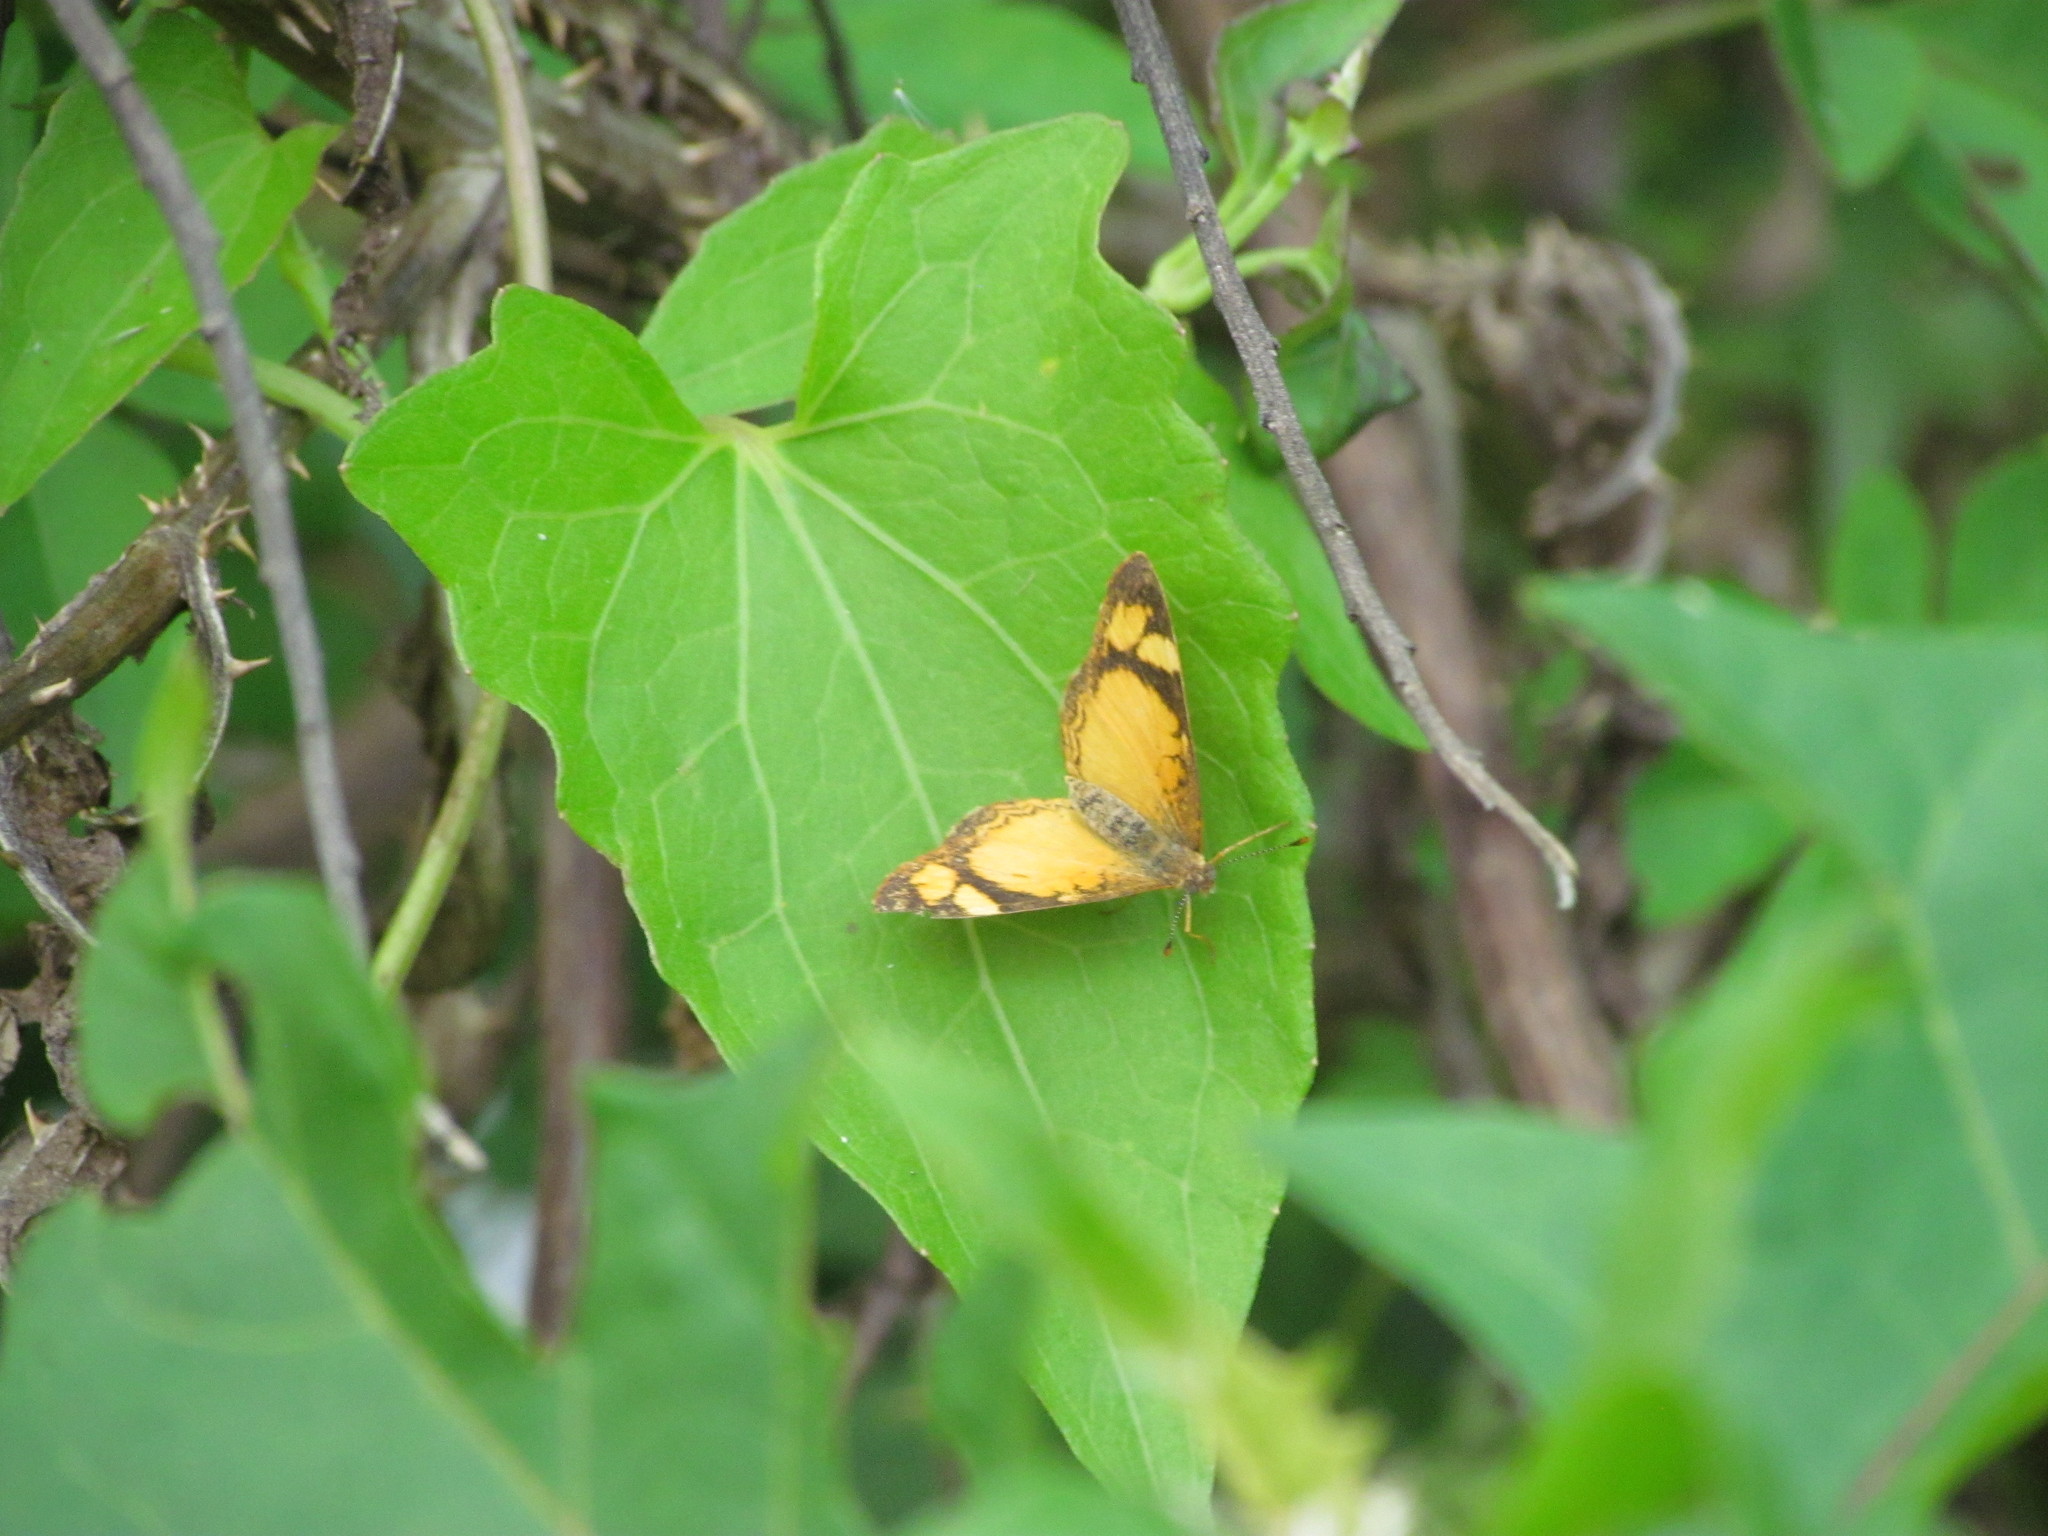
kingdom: Animalia
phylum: Arthropoda
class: Insecta
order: Lepidoptera
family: Nymphalidae
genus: Tegosa
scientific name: Tegosa claudina
